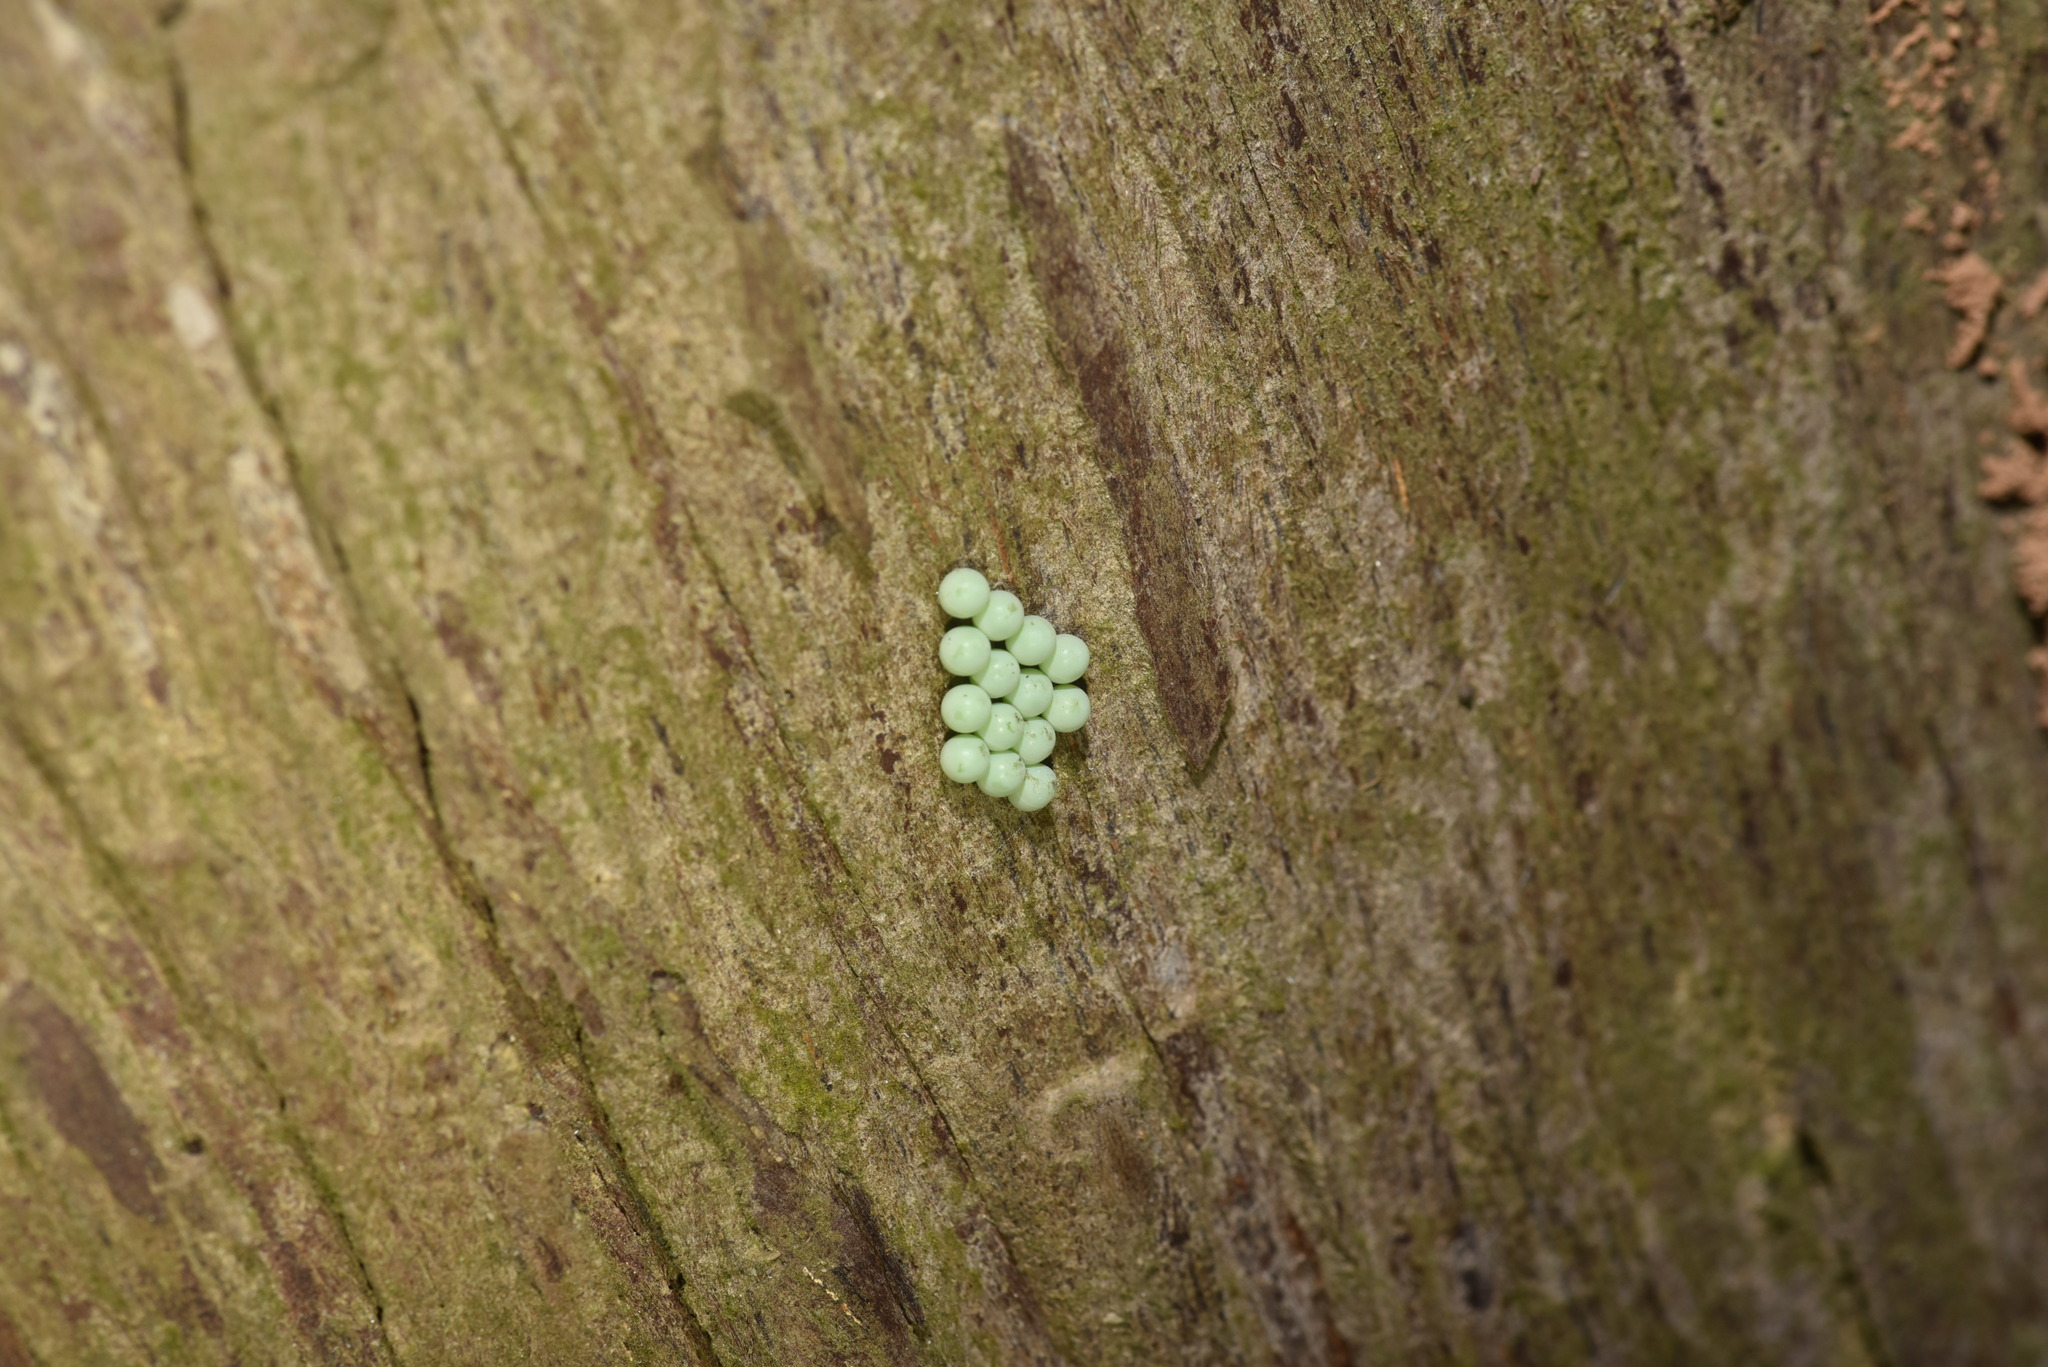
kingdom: Animalia
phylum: Arthropoda
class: Insecta
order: Hemiptera
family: Tessaratomidae
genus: Tessaratoma
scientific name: Tessaratoma papillosa
